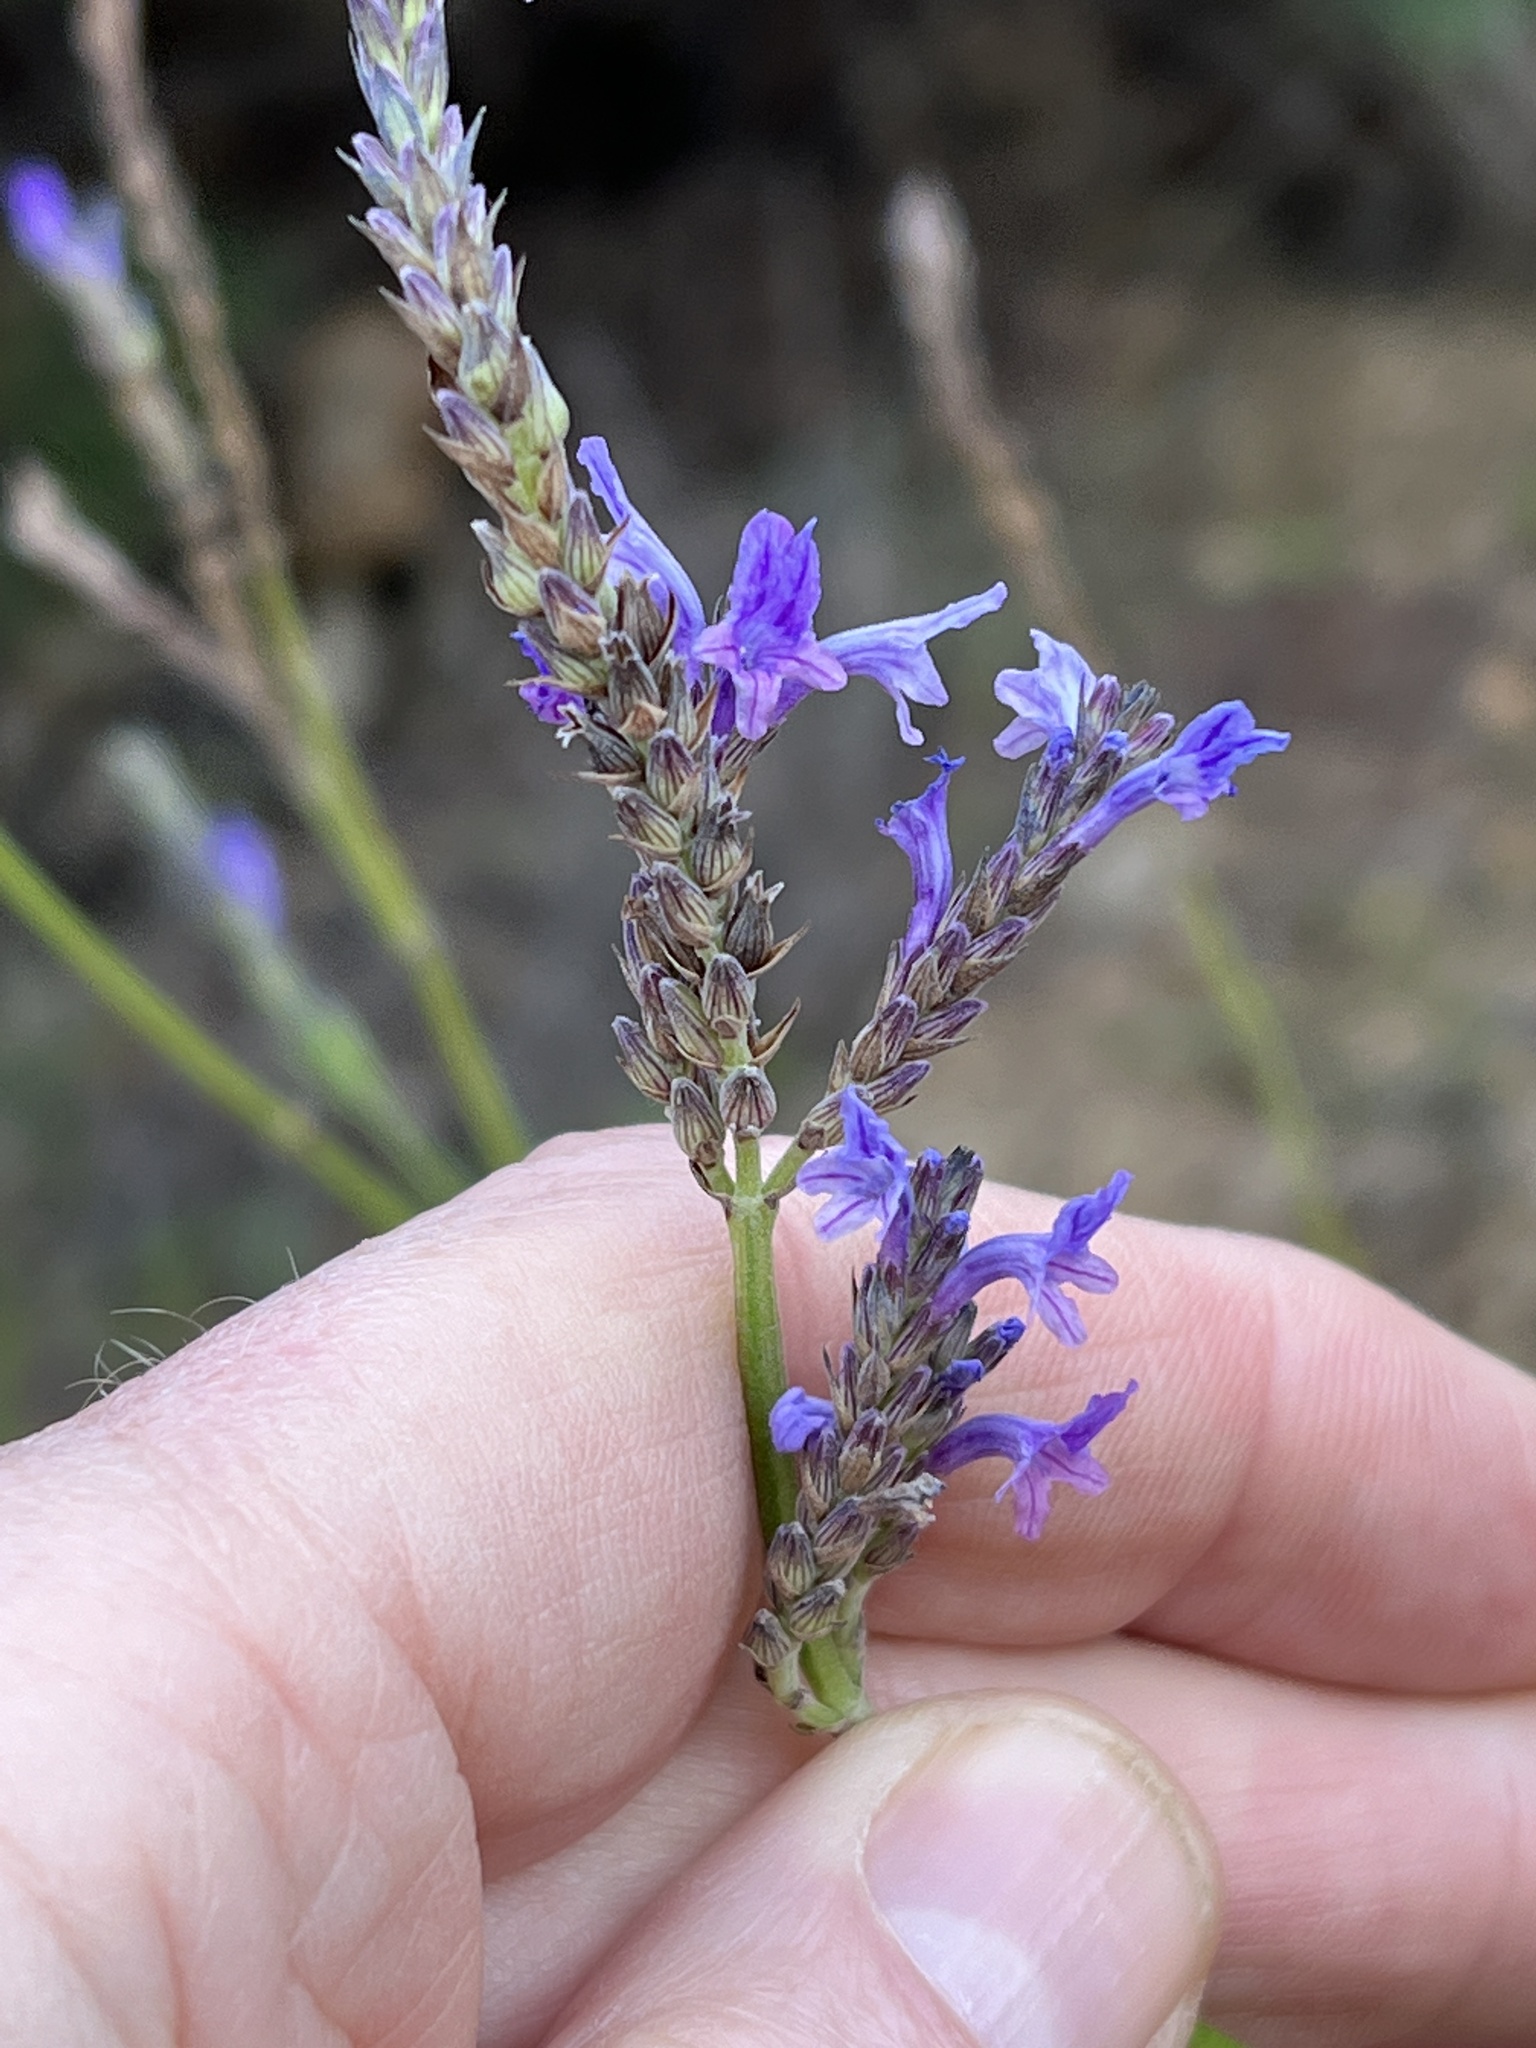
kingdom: Plantae
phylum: Tracheophyta
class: Magnoliopsida
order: Lamiales
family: Lamiaceae
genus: Lavandula
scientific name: Lavandula canariensis
